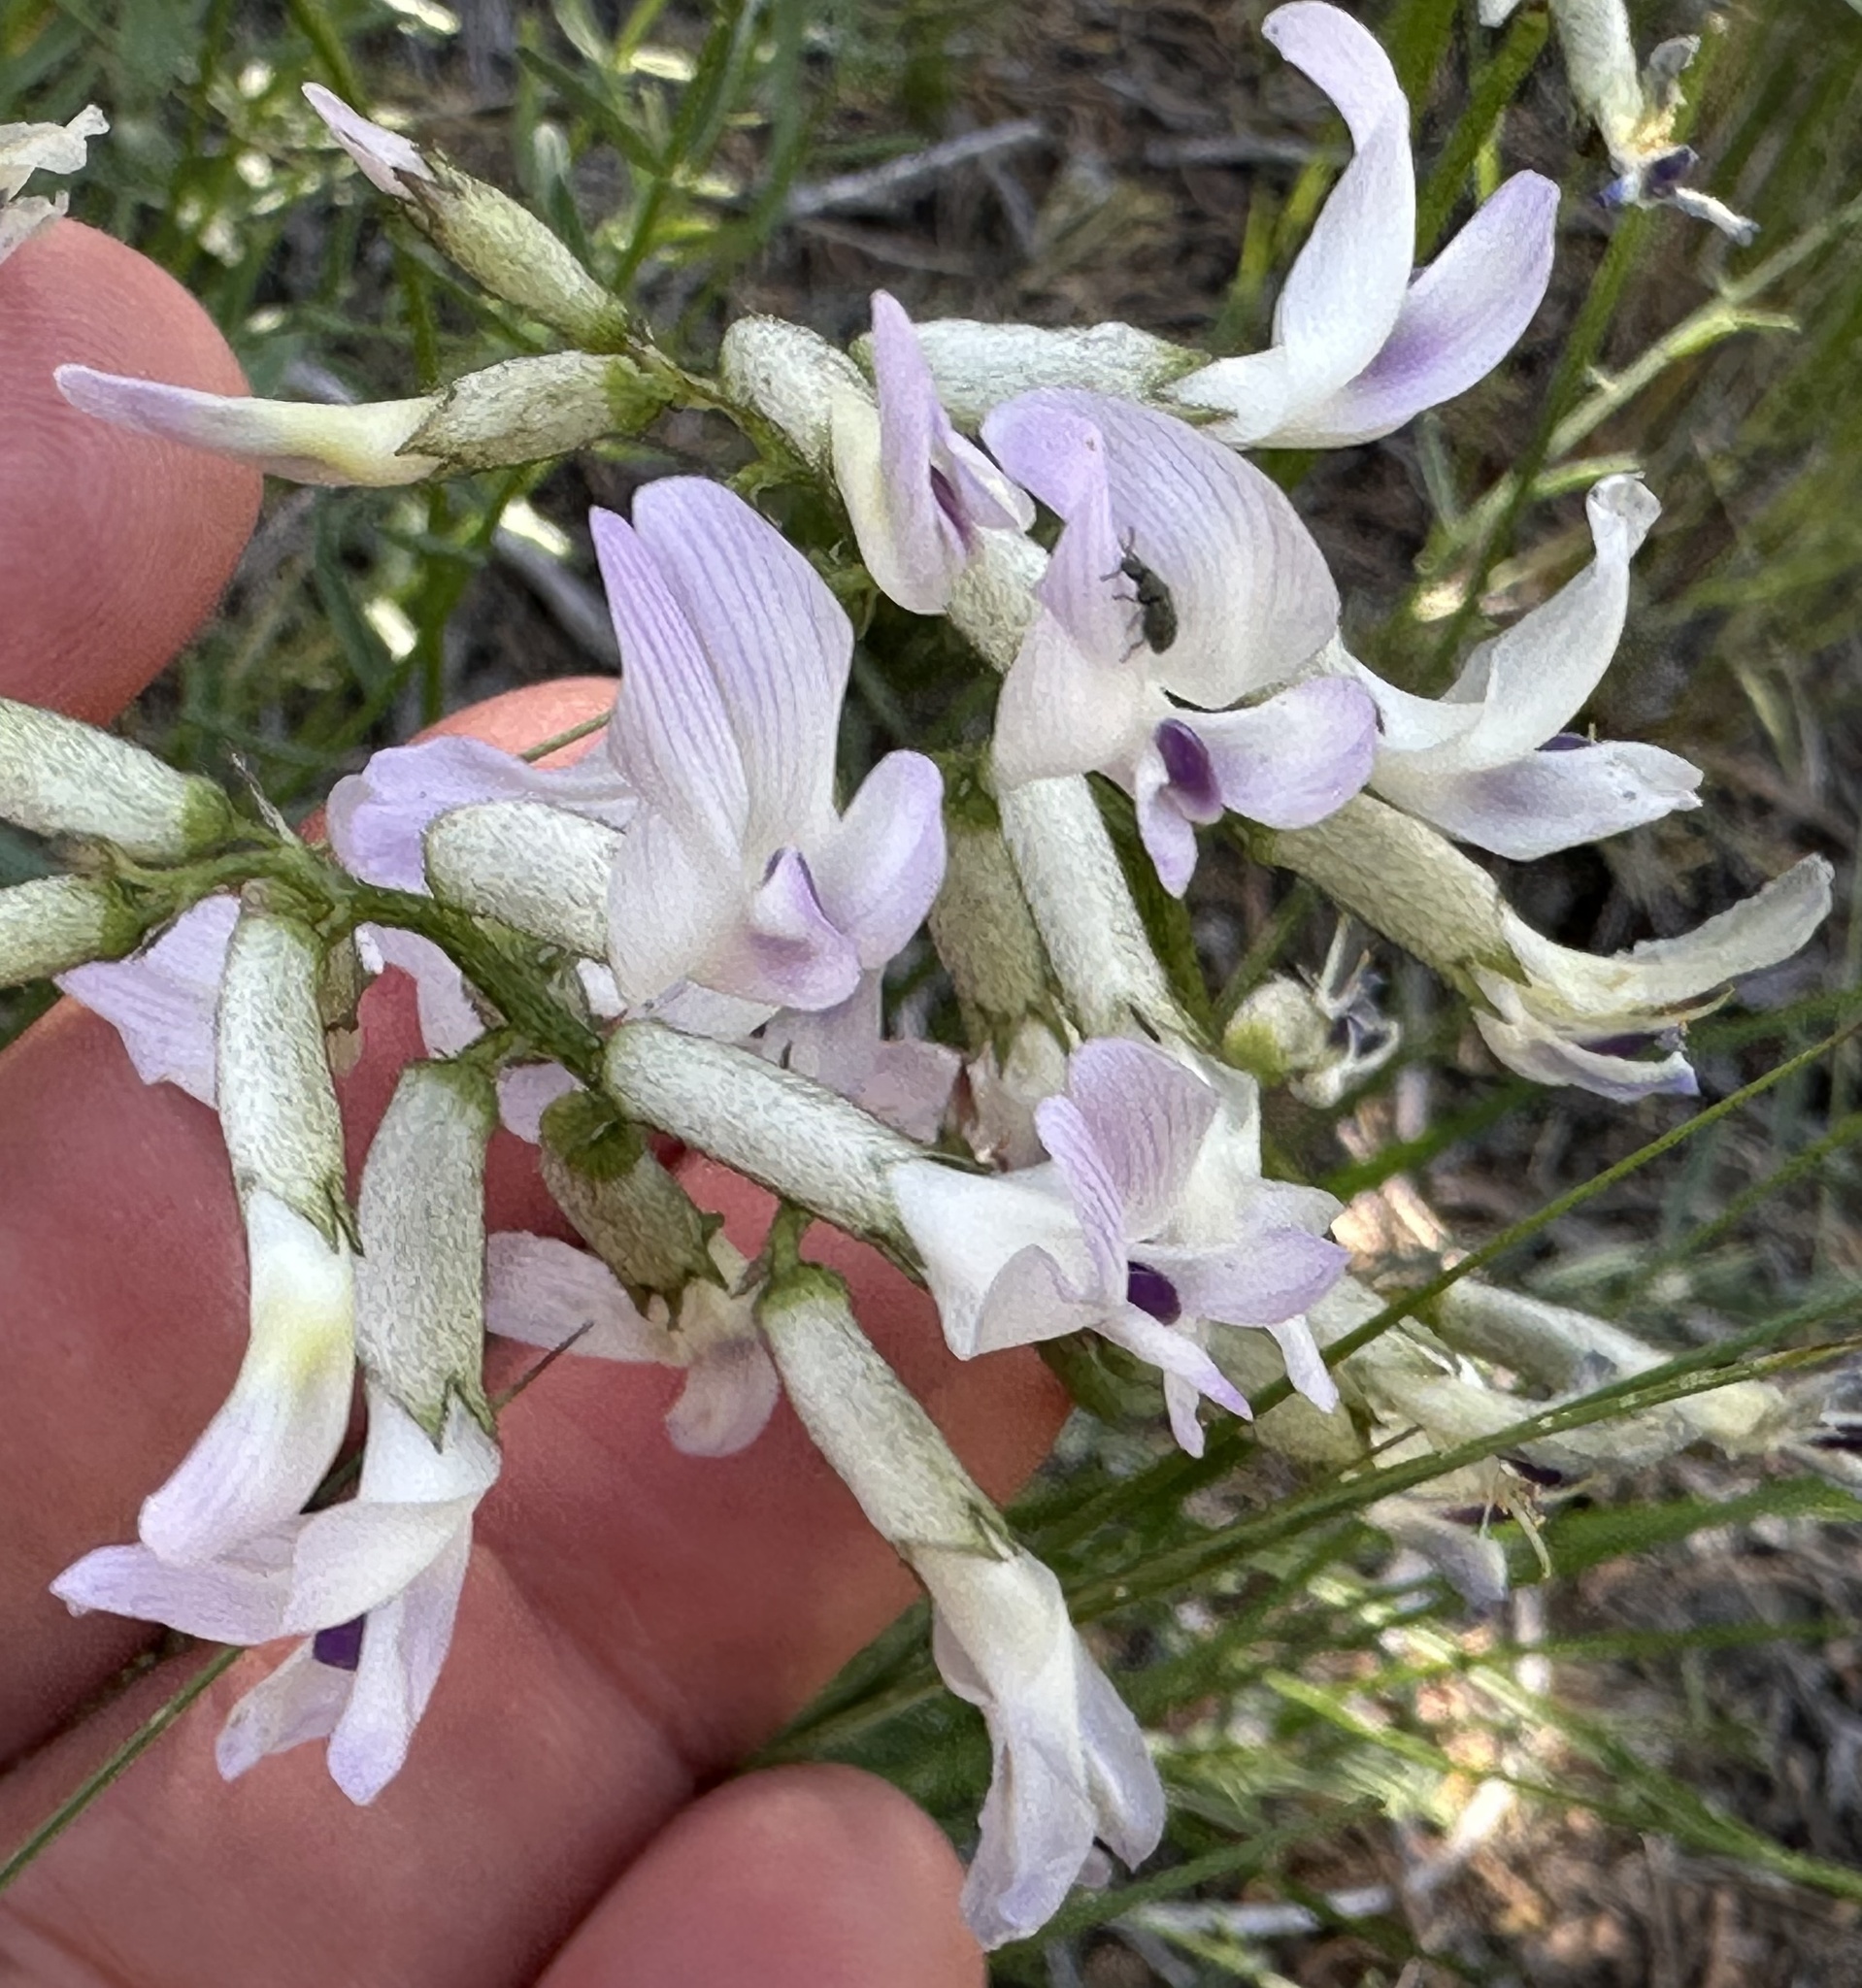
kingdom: Plantae
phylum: Tracheophyta
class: Magnoliopsida
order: Fabales
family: Fabaceae
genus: Astragalus
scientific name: Astragalus conjunctus
